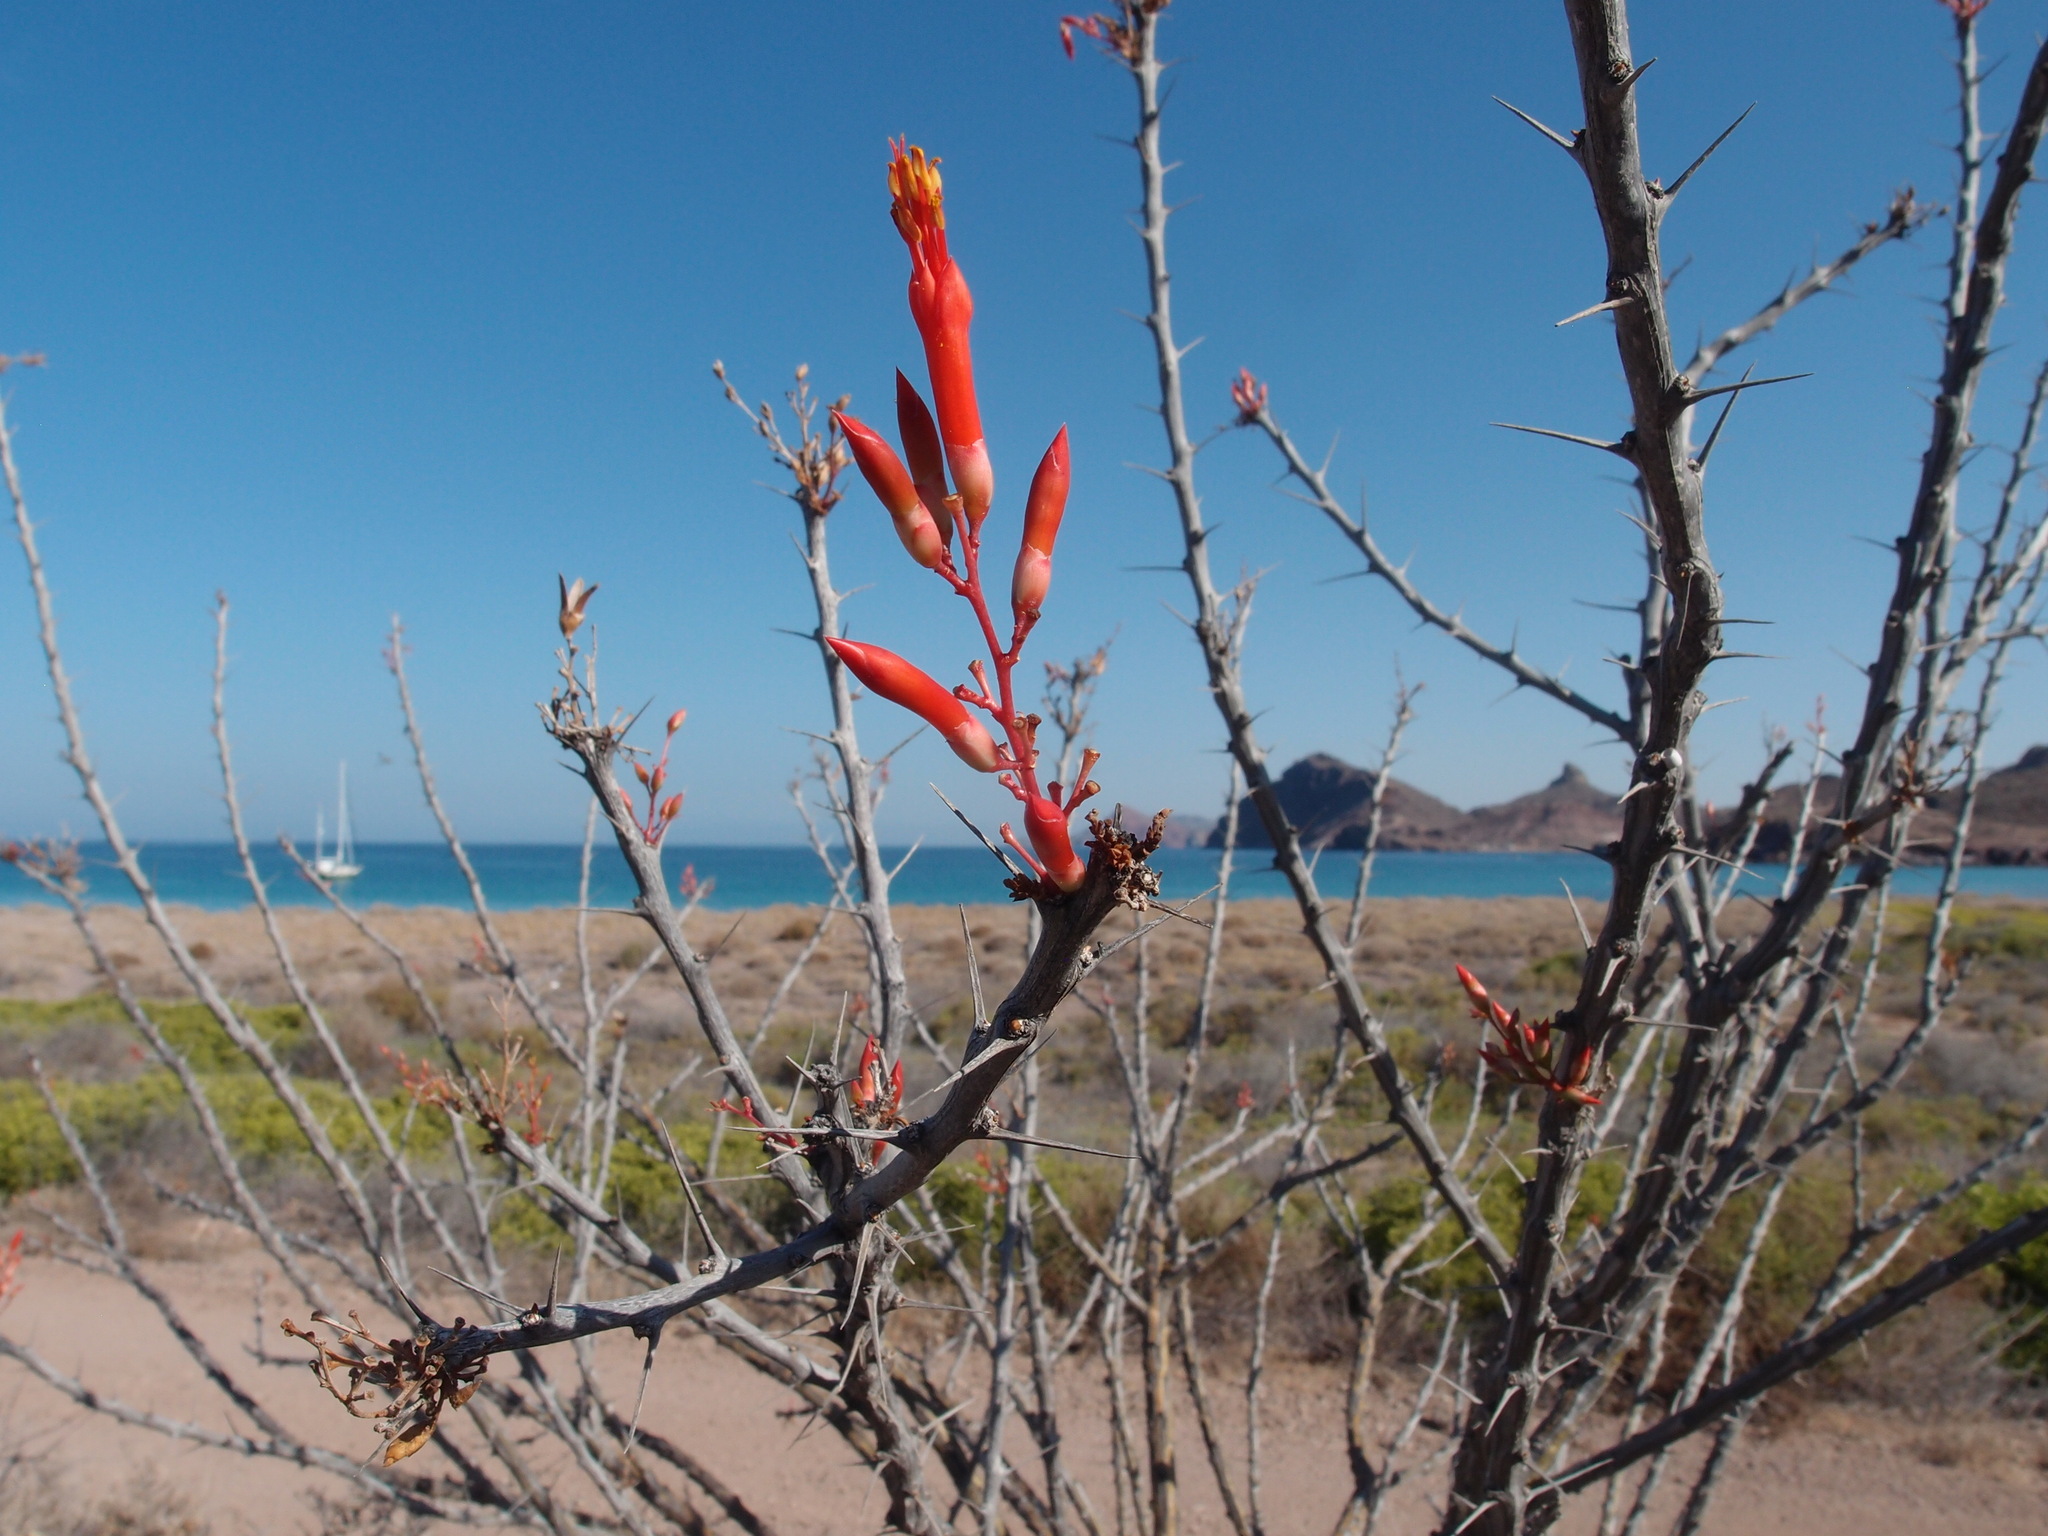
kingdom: Plantae
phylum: Tracheophyta
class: Magnoliopsida
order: Ericales
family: Fouquieriaceae
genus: Fouquieria
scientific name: Fouquieria diguetii
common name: Adam's tree
